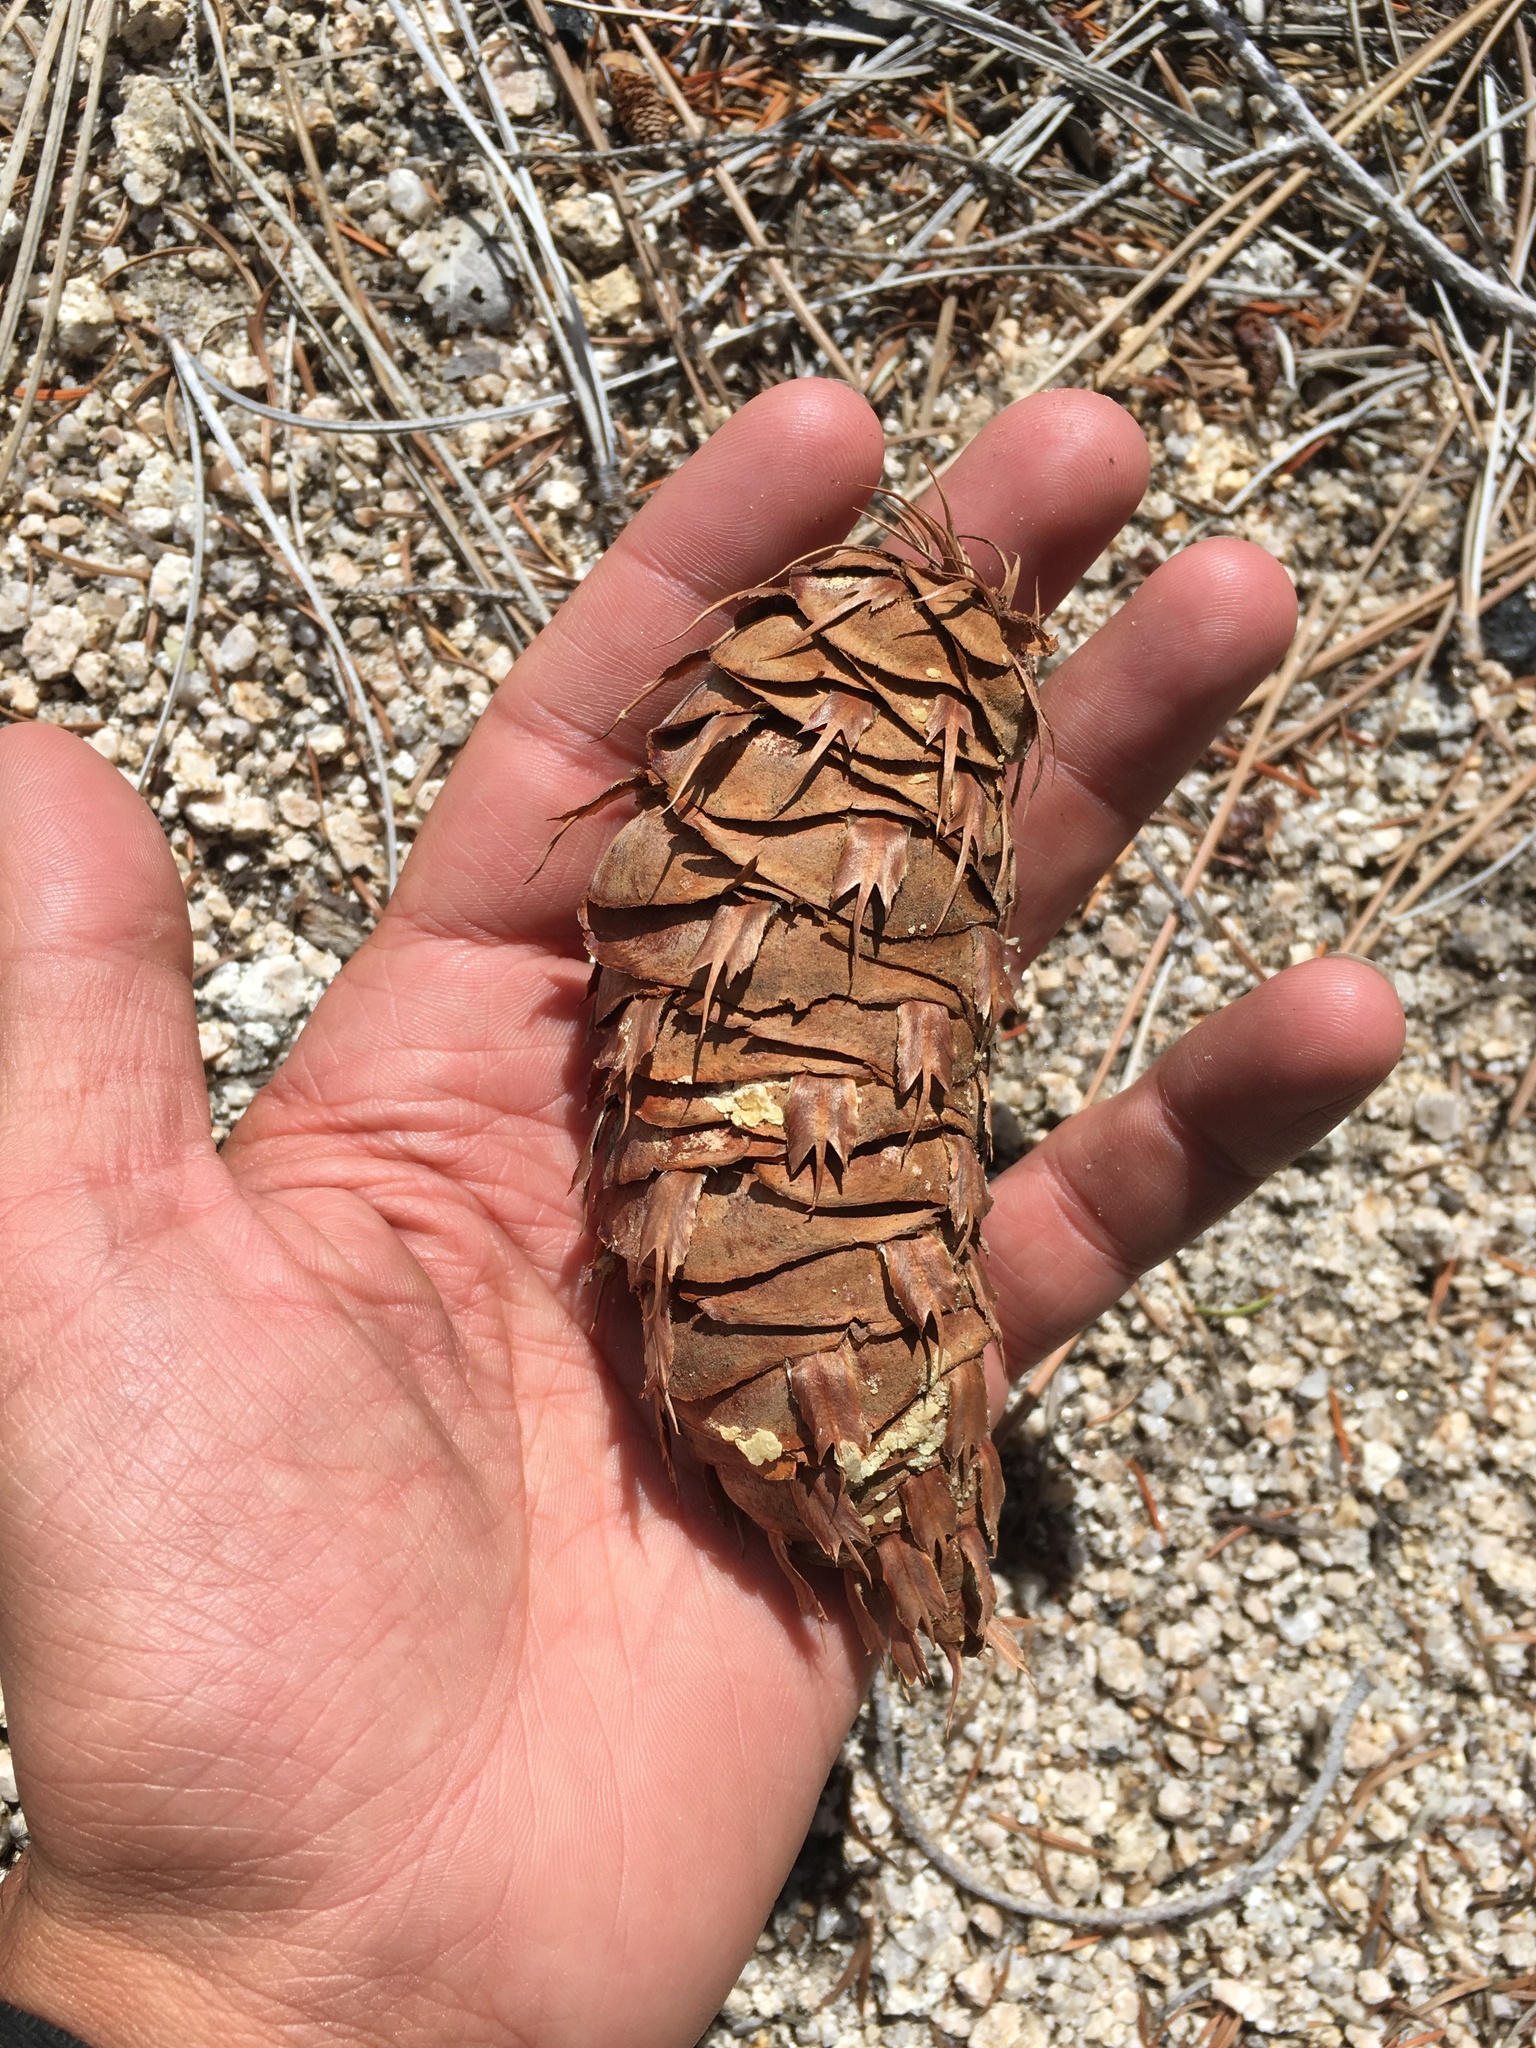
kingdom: Plantae
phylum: Tracheophyta
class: Pinopsida
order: Pinales
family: Pinaceae
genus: Pseudotsuga
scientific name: Pseudotsuga macrocarpa
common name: Big-cone douglas-fir
